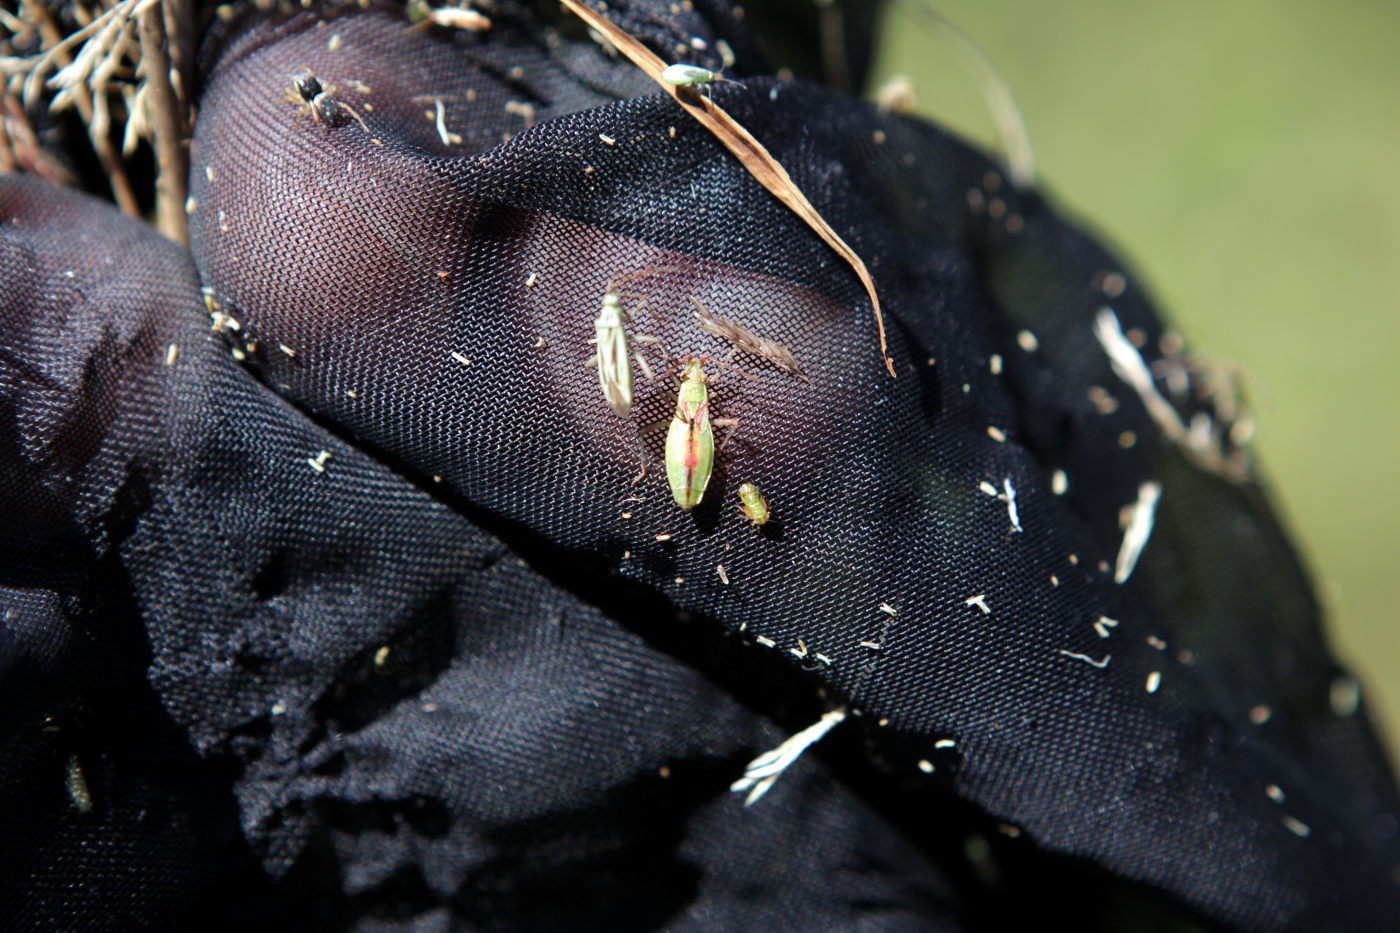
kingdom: Animalia
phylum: Arthropoda
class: Insecta
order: Hemiptera
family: Rhopalidae
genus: Myrmus
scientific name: Myrmus miriformis
